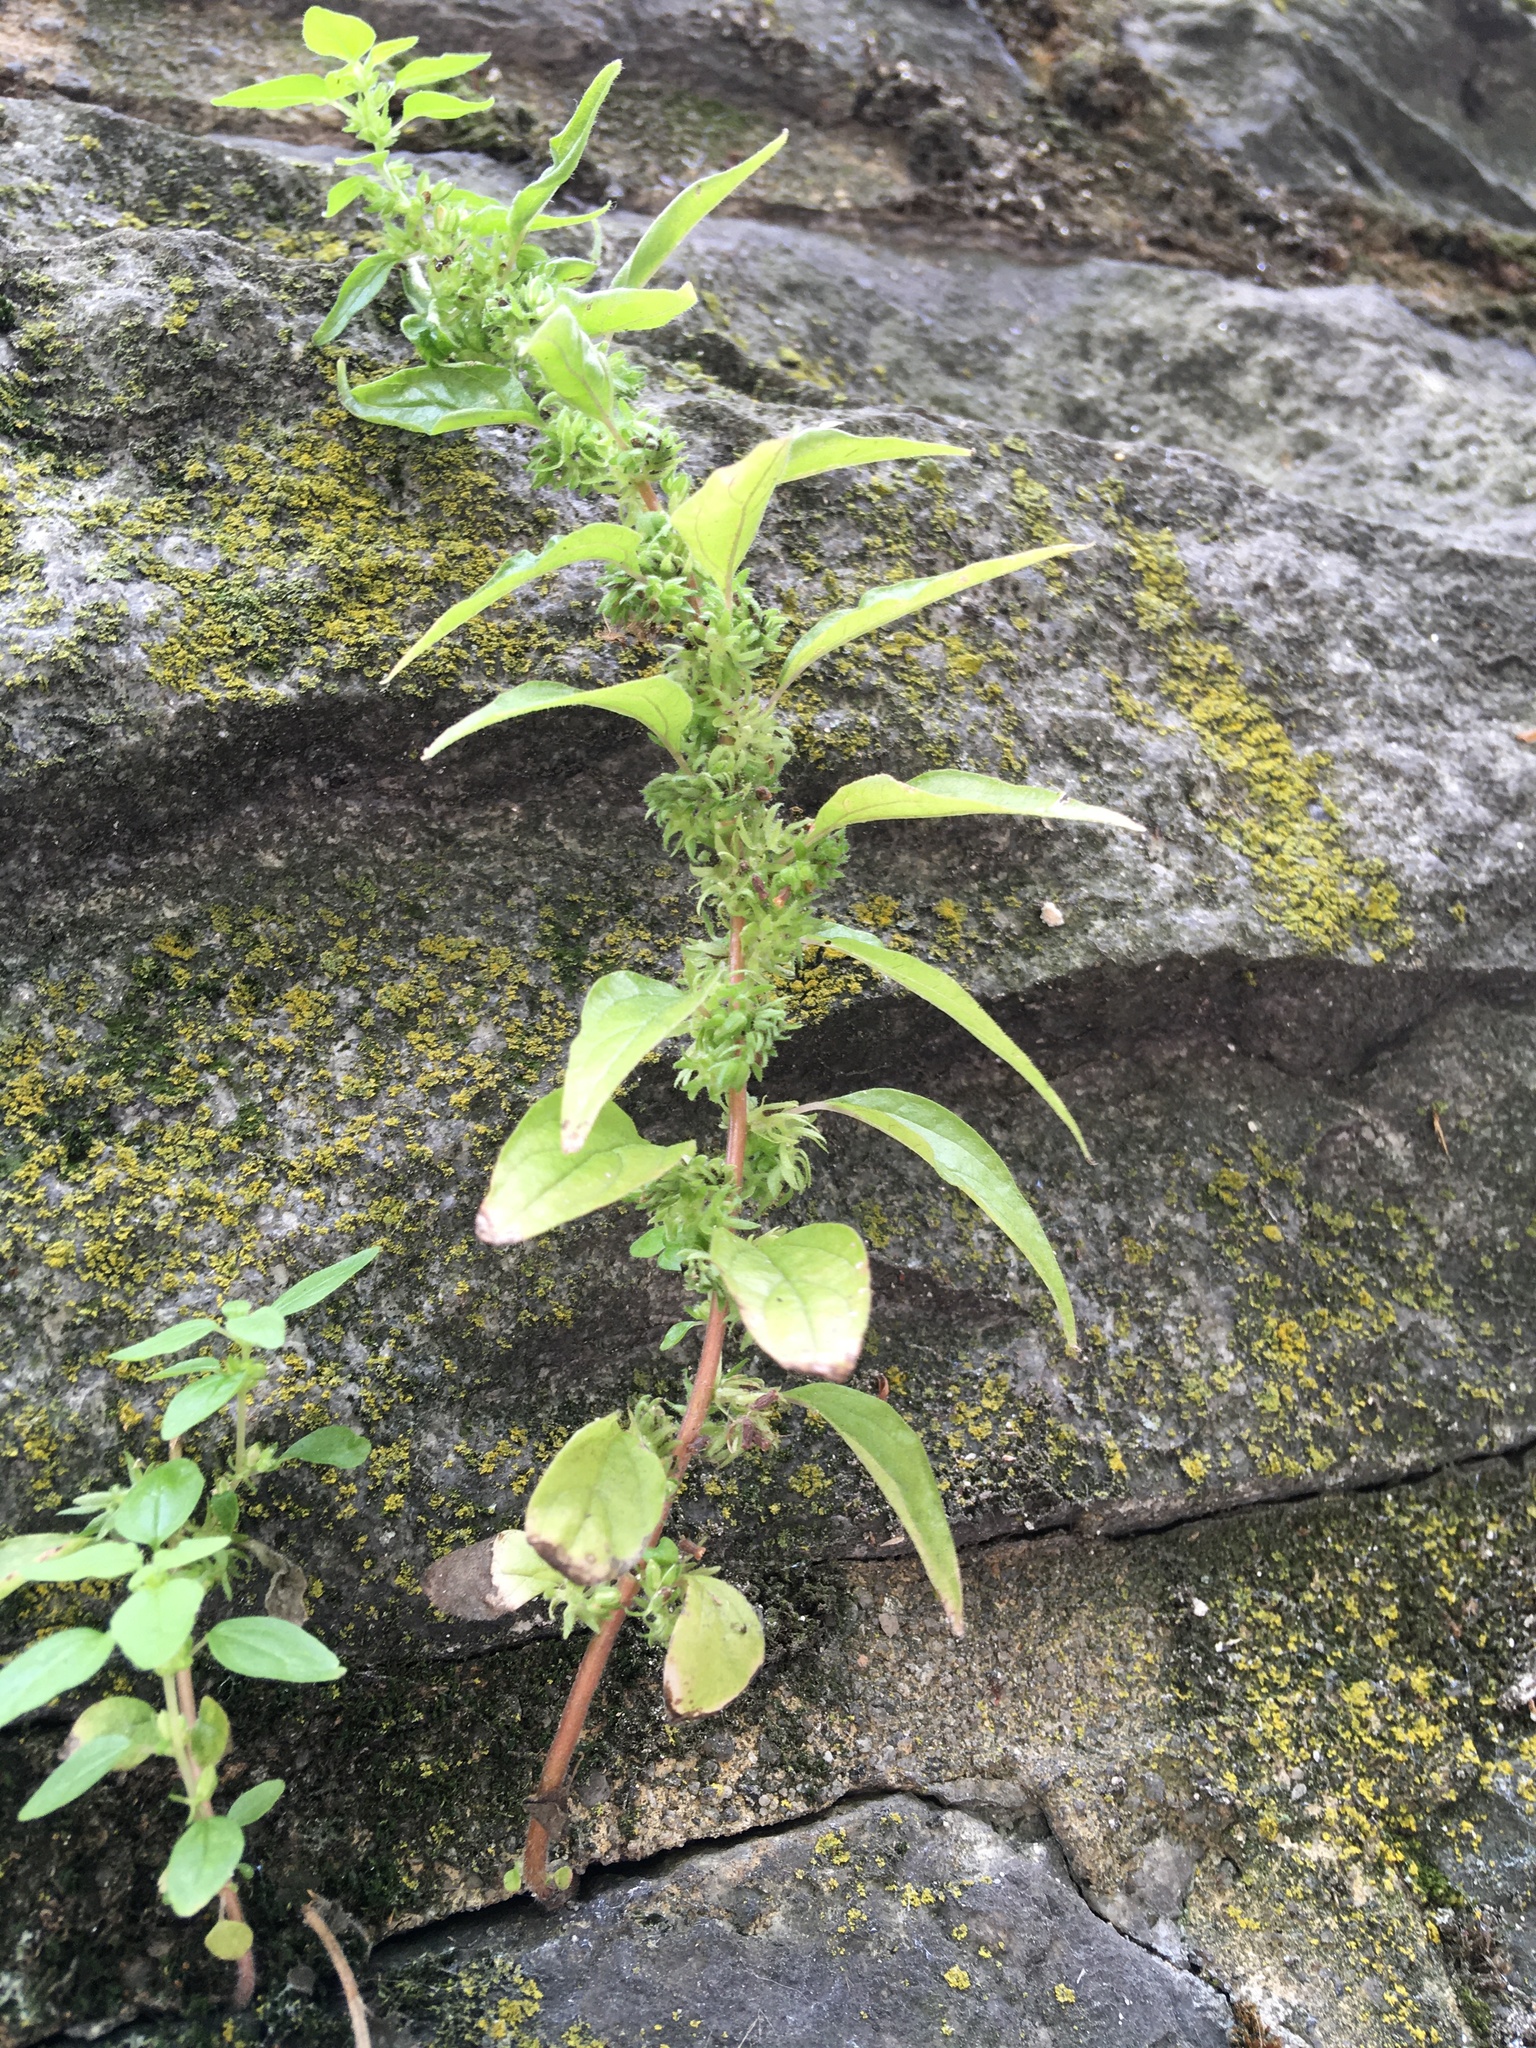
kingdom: Plantae
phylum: Tracheophyta
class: Magnoliopsida
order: Rosales
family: Urticaceae
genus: Parietaria
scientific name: Parietaria pensylvanica
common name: Pennsylvania pellitory
